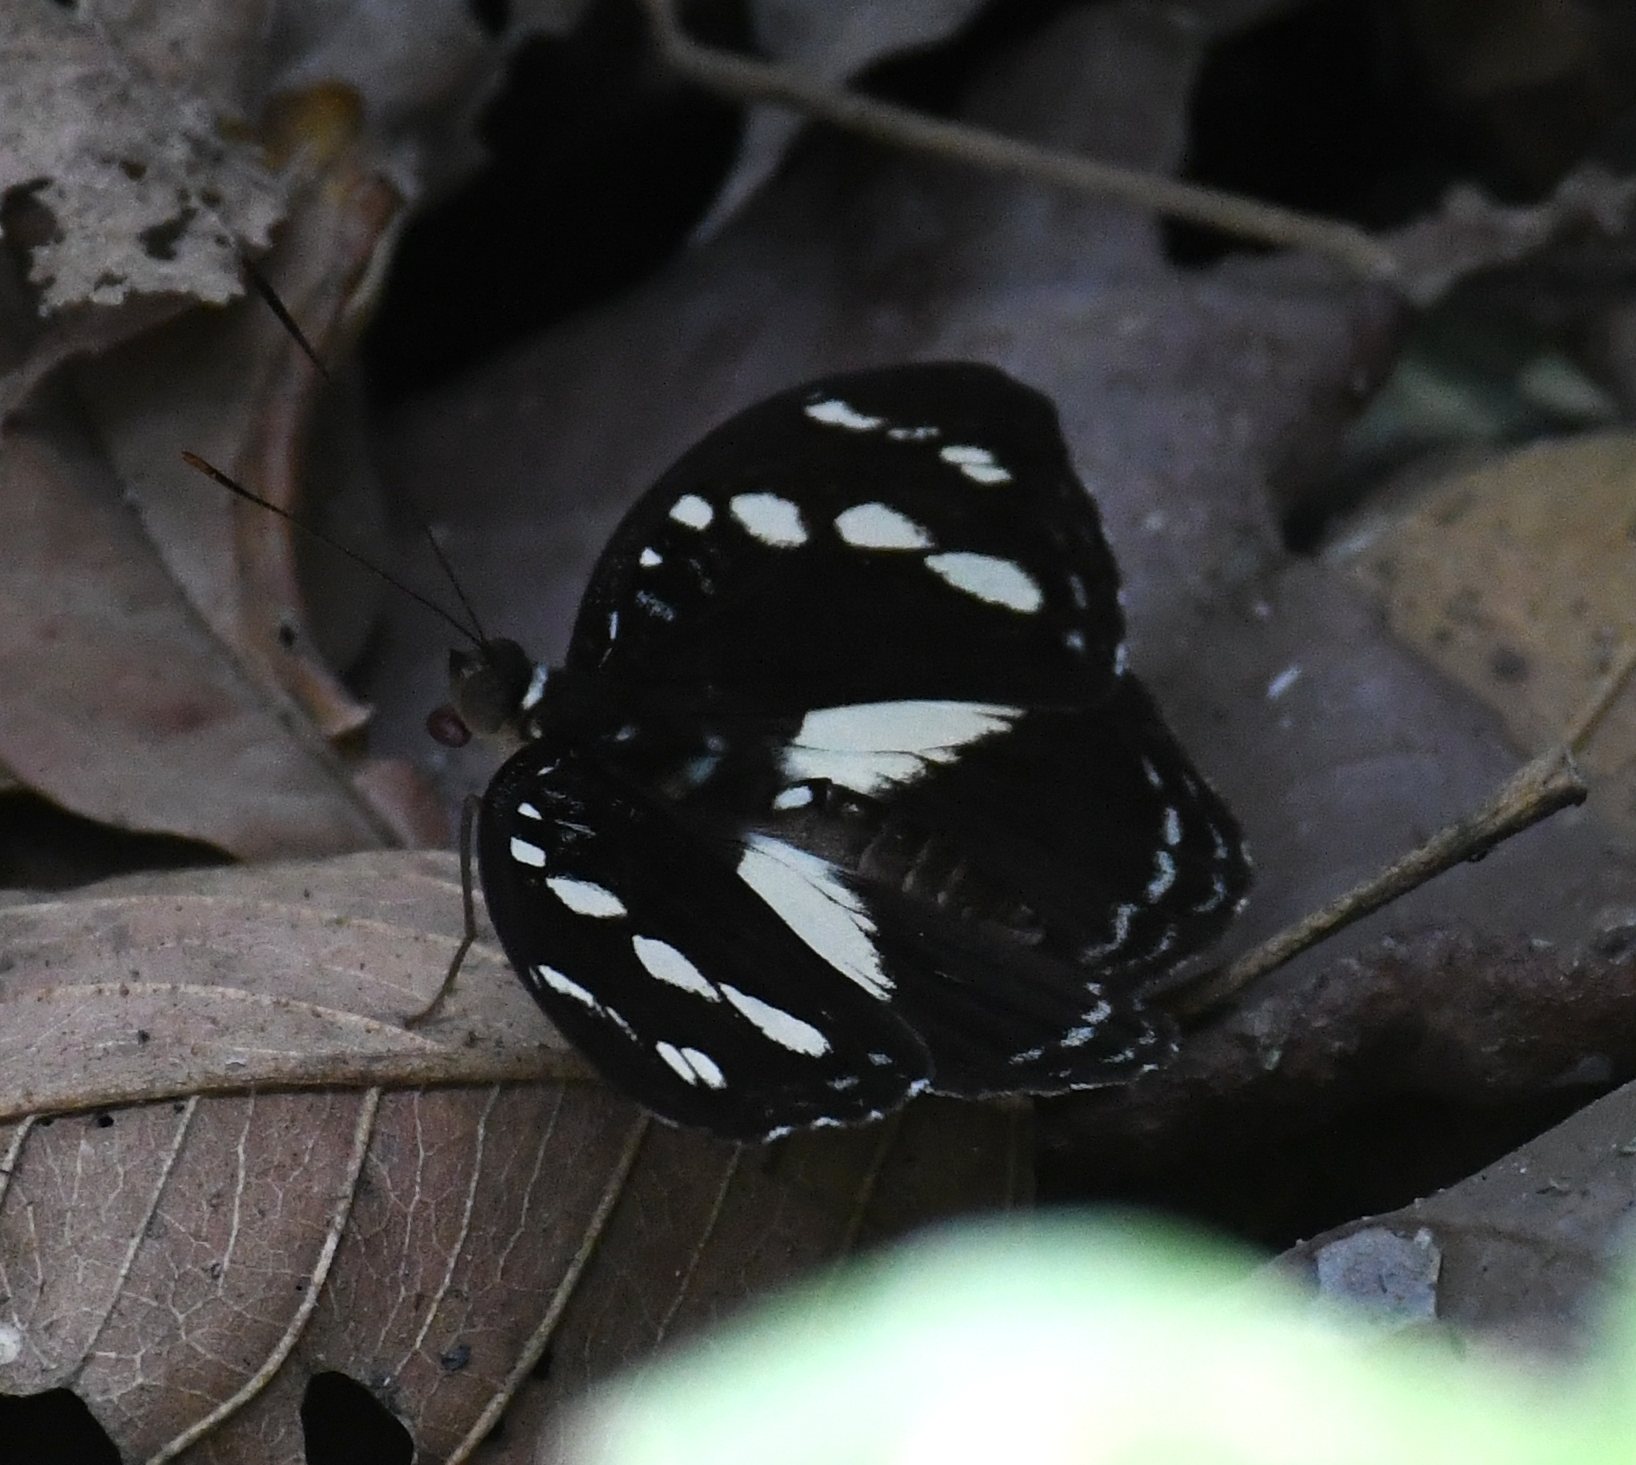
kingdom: Animalia
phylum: Arthropoda
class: Insecta
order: Lepidoptera
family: Nymphalidae
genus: Aterica
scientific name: Aterica galene
